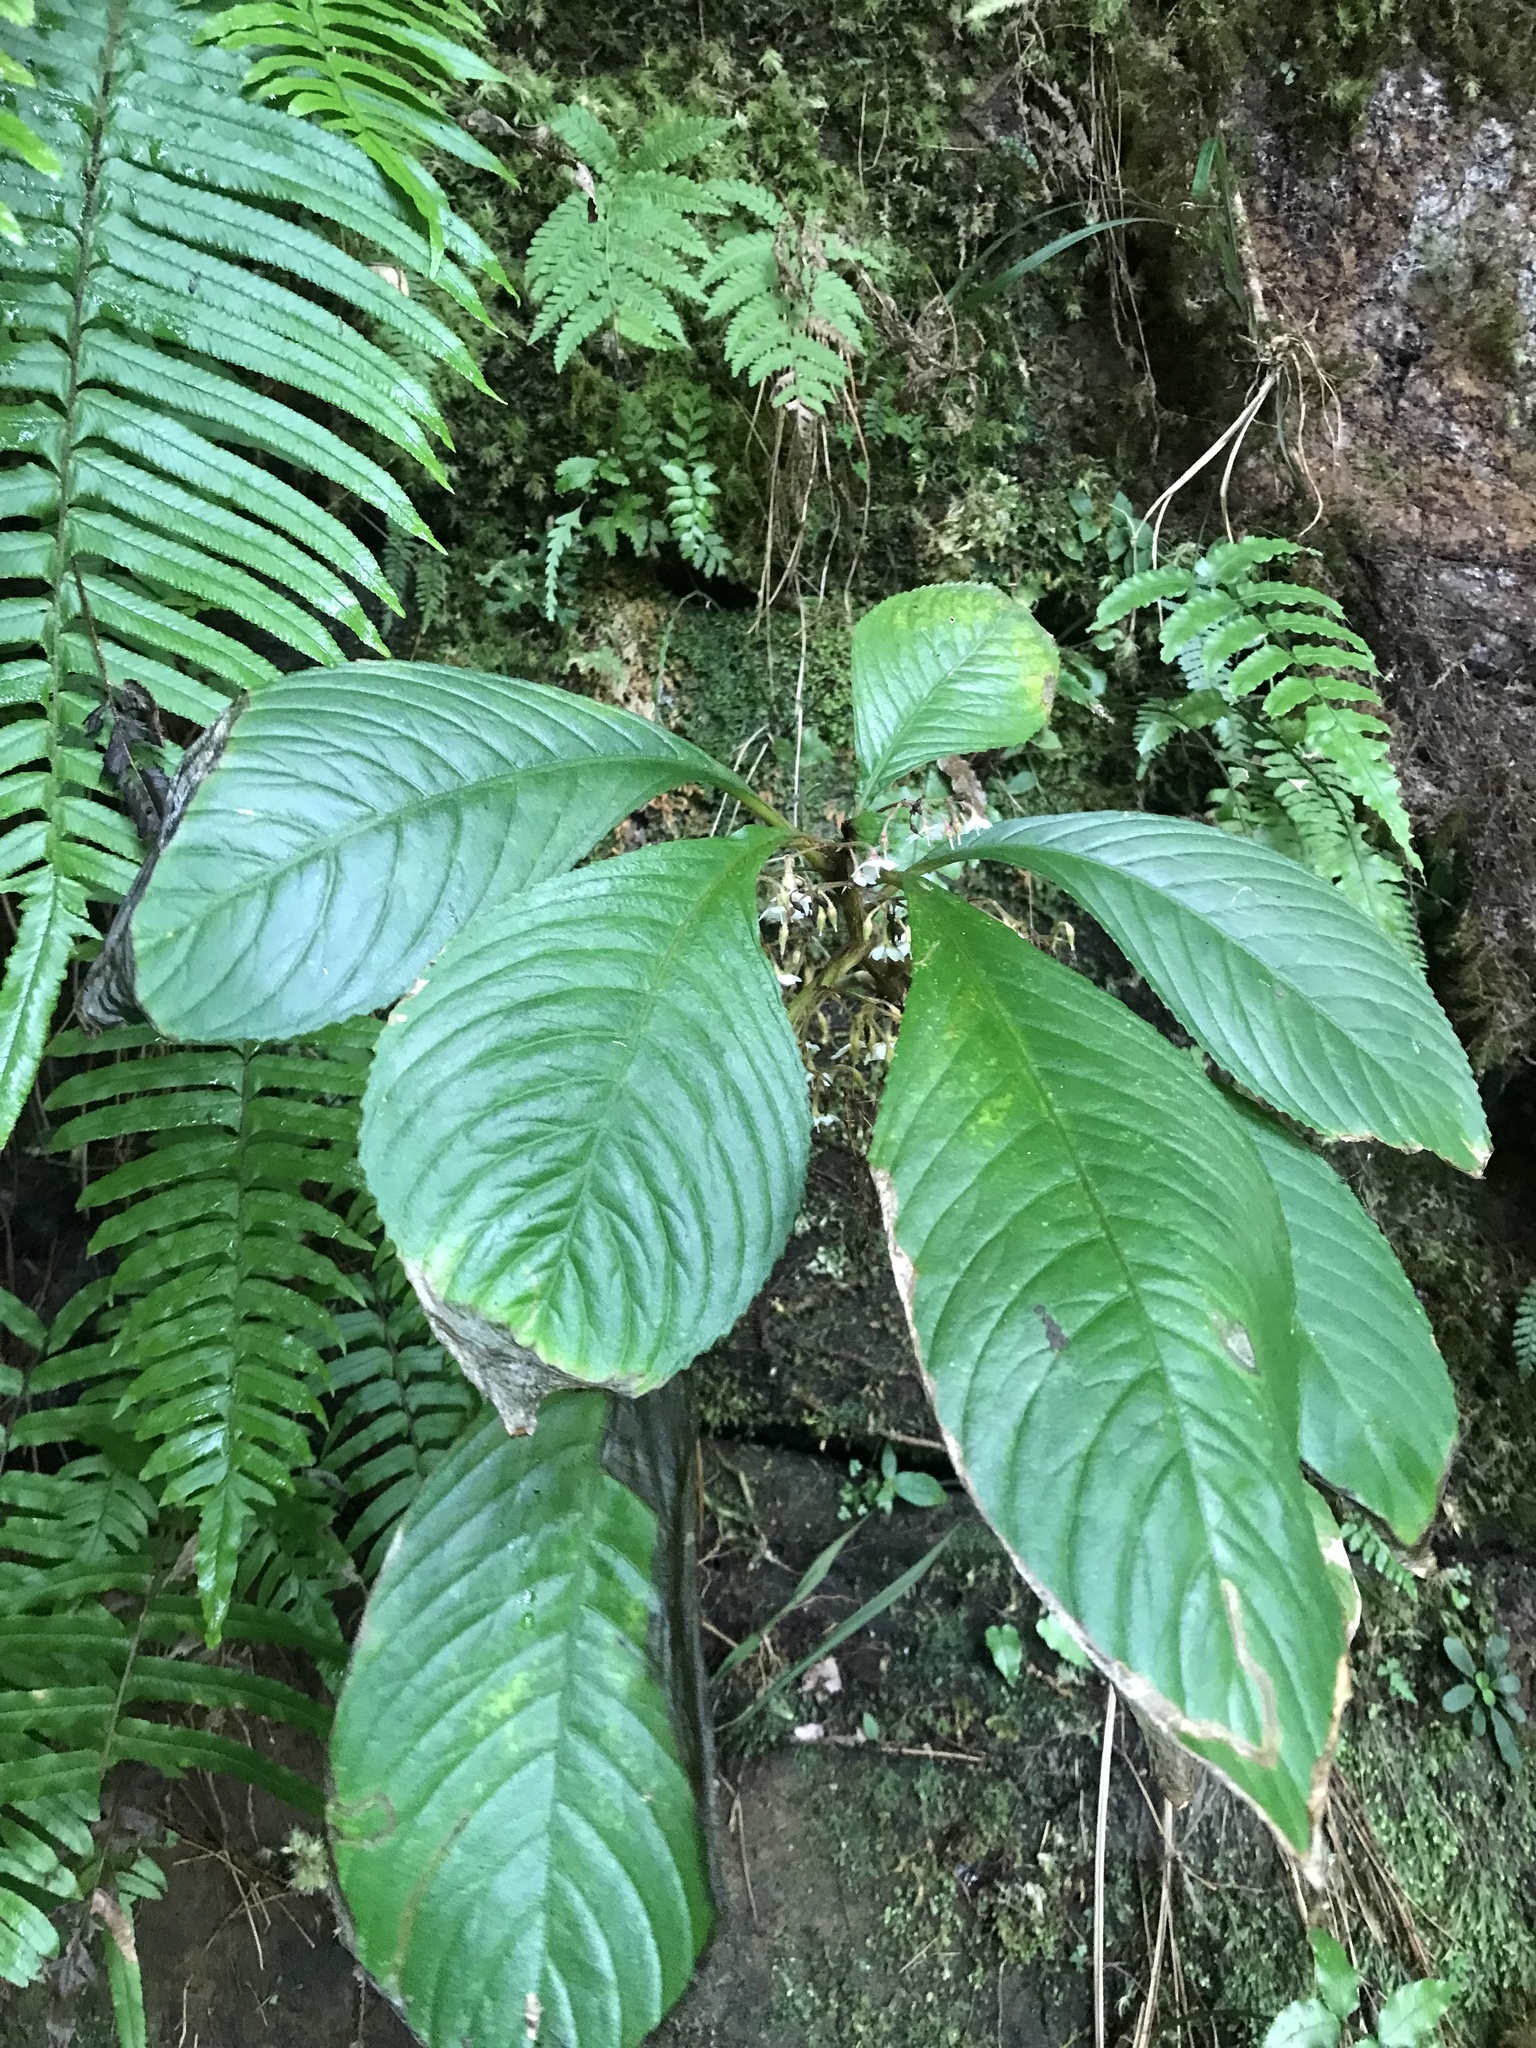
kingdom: Plantae
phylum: Tracheophyta
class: Magnoliopsida
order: Lamiales
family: Gesneriaceae
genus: Rhynchotechum
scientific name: Rhynchotechum formosanum
